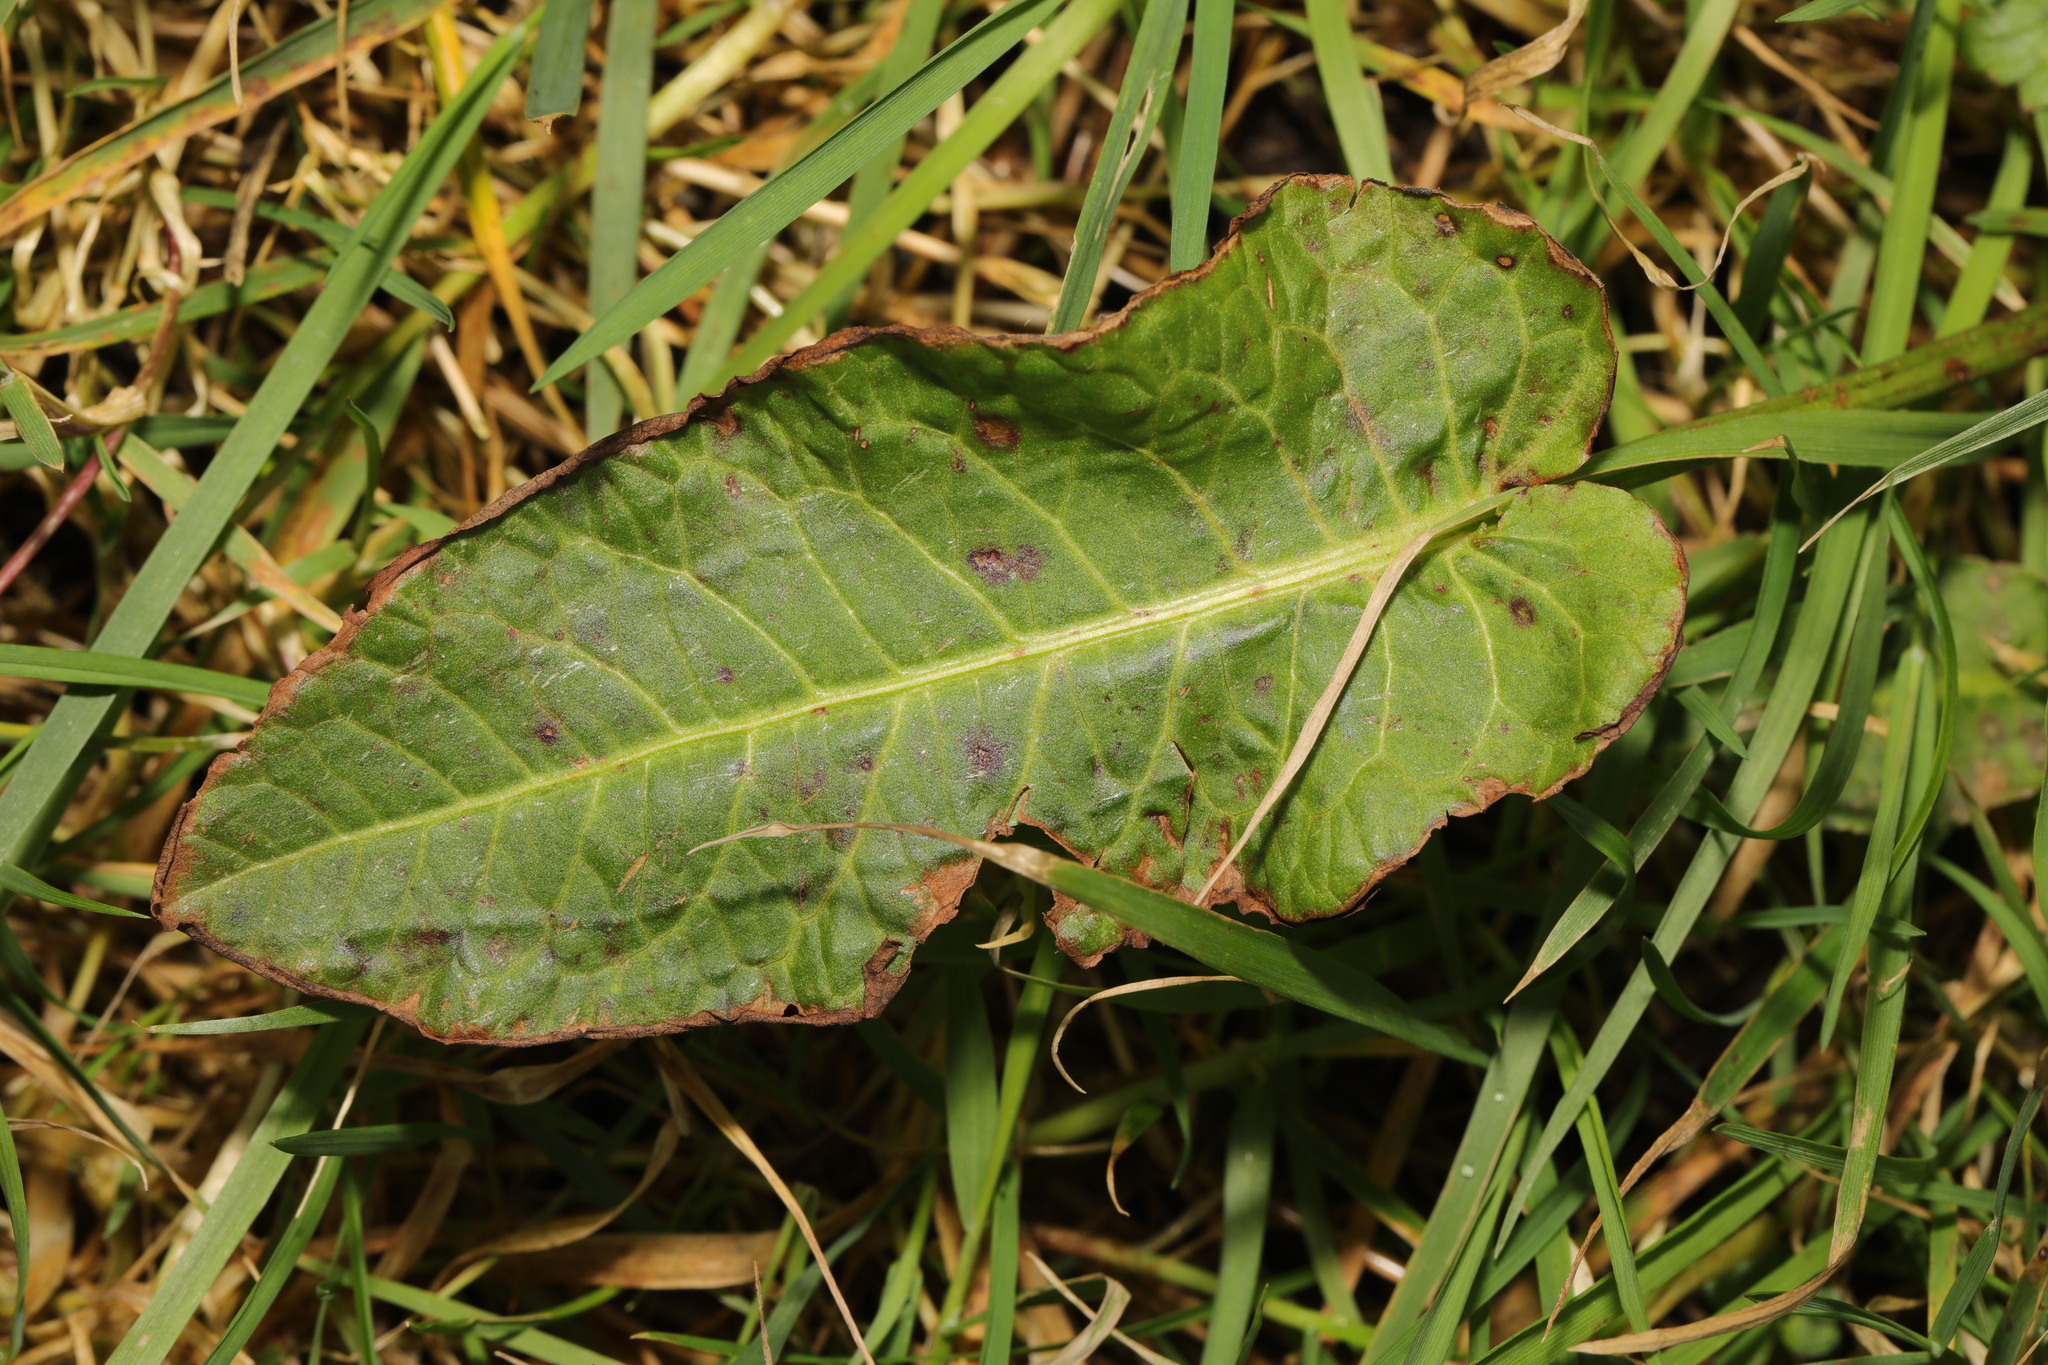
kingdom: Plantae
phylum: Tracheophyta
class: Magnoliopsida
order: Caryophyllales
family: Polygonaceae
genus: Rumex
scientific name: Rumex obtusifolius
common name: Bitter dock
